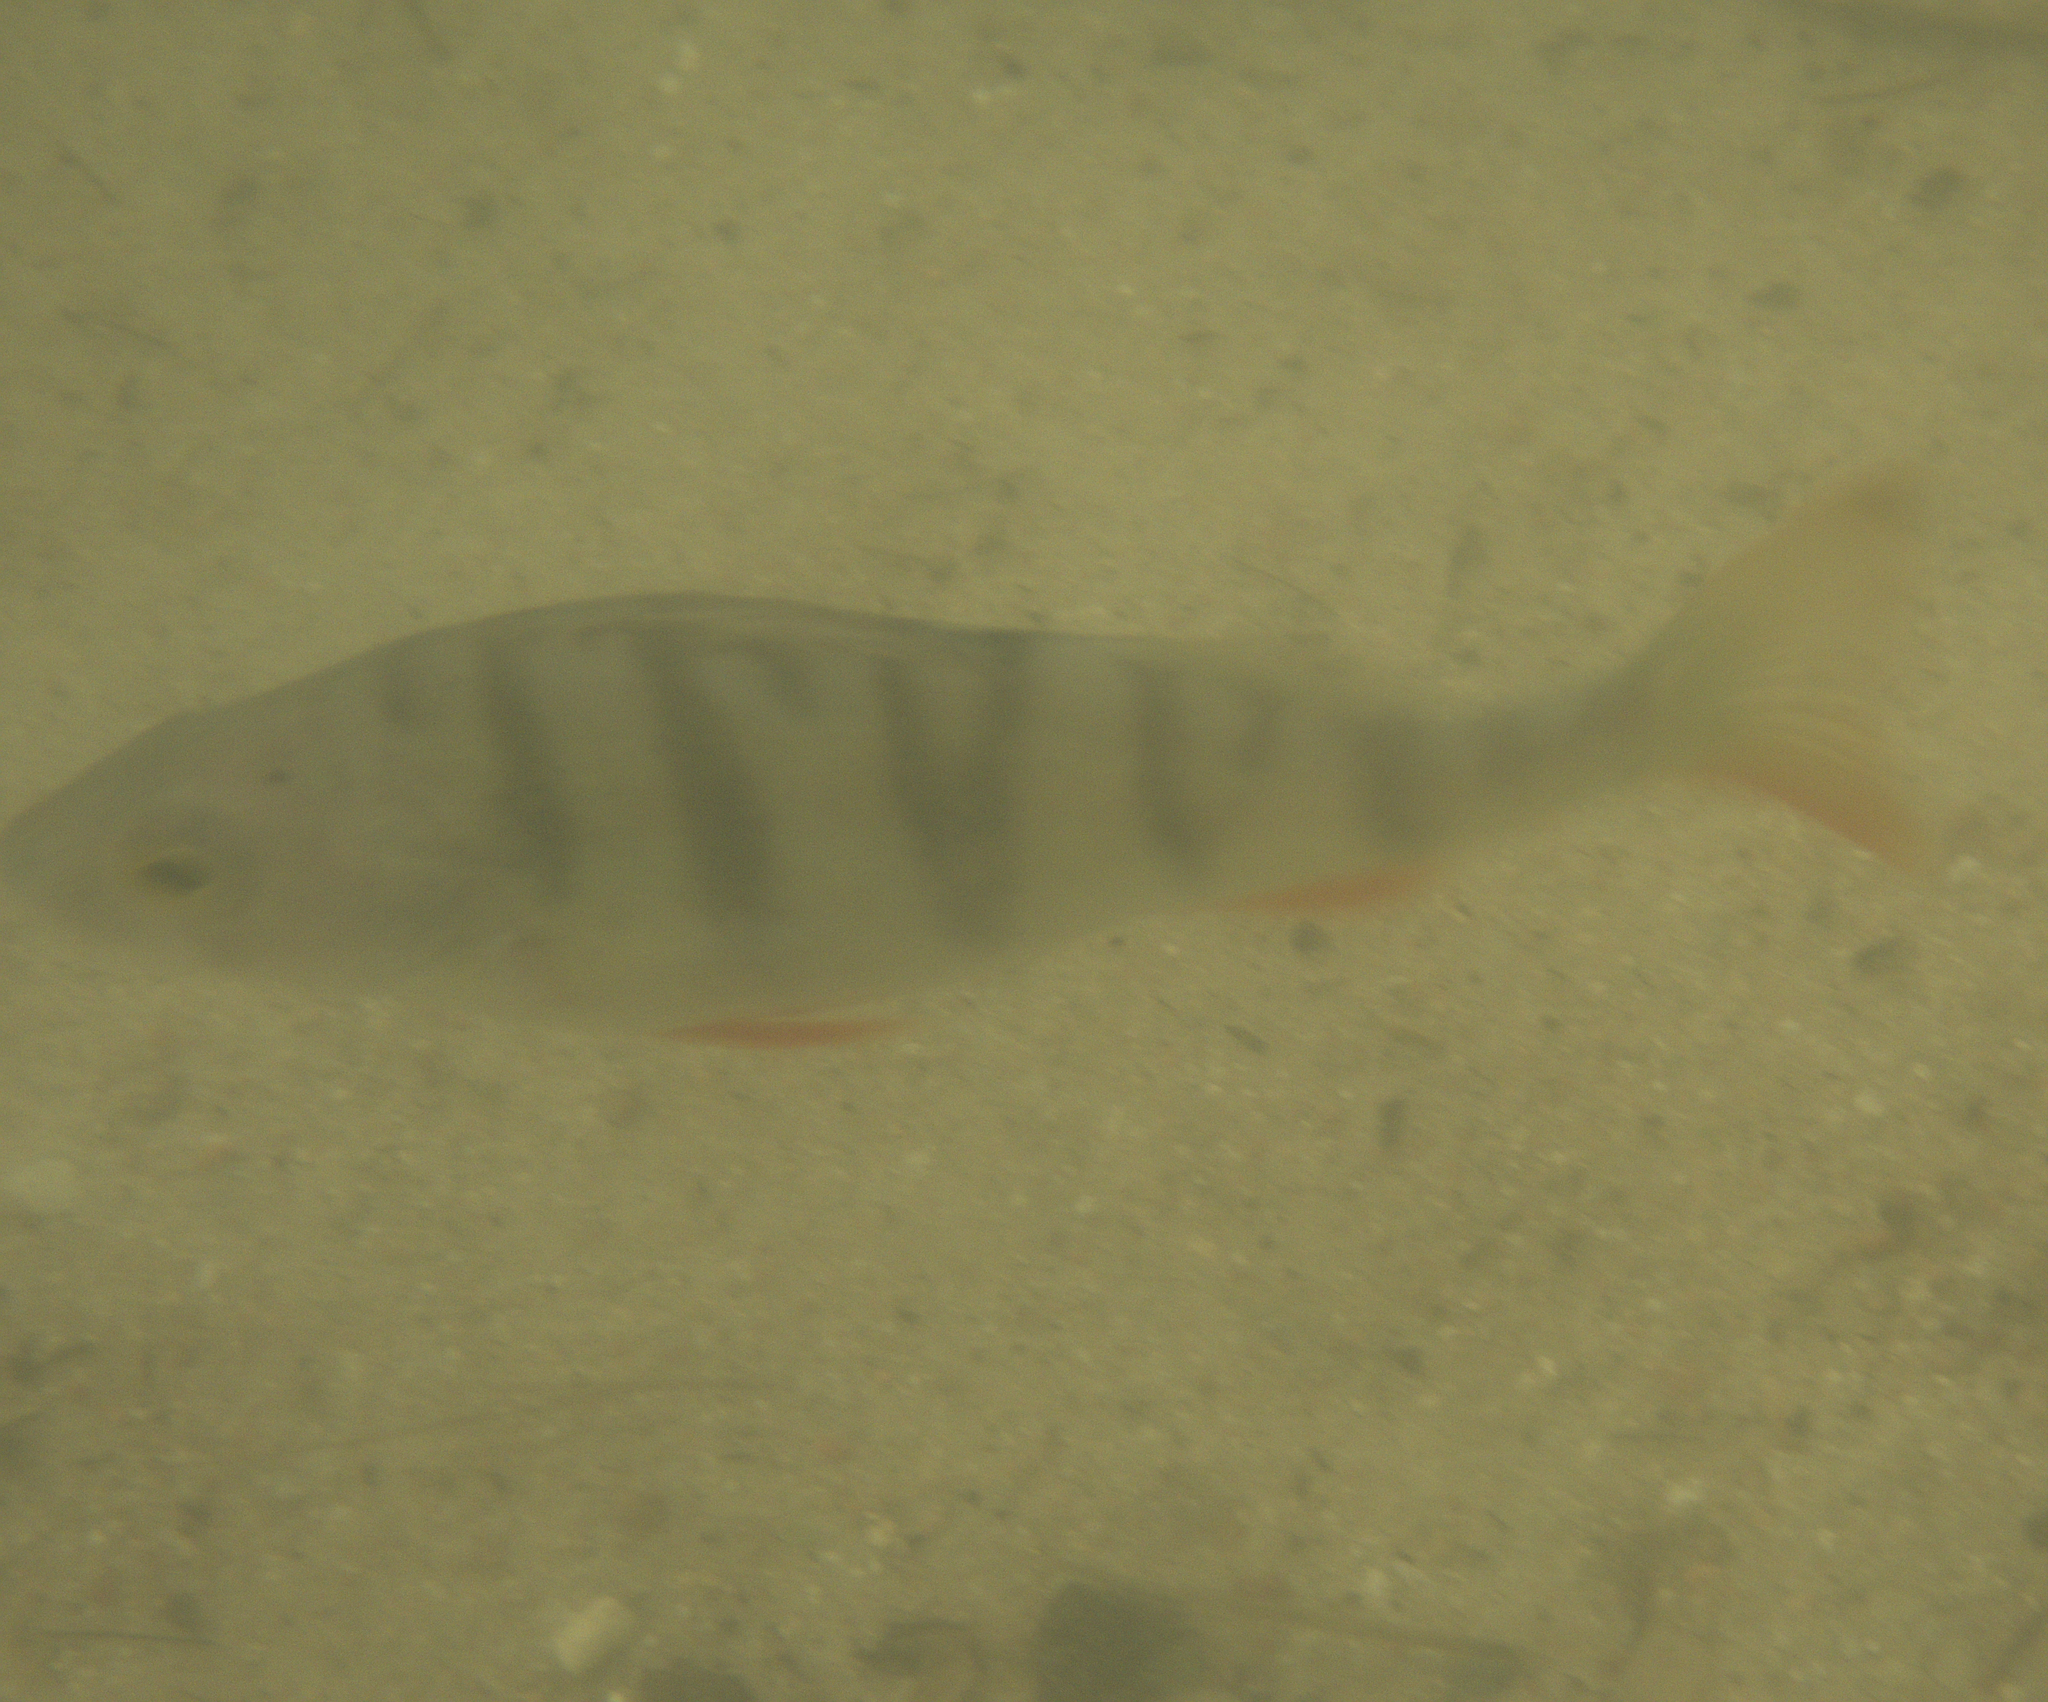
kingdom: Animalia
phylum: Chordata
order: Perciformes
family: Percidae
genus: Perca
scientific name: Perca fluviatilis
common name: Perch
